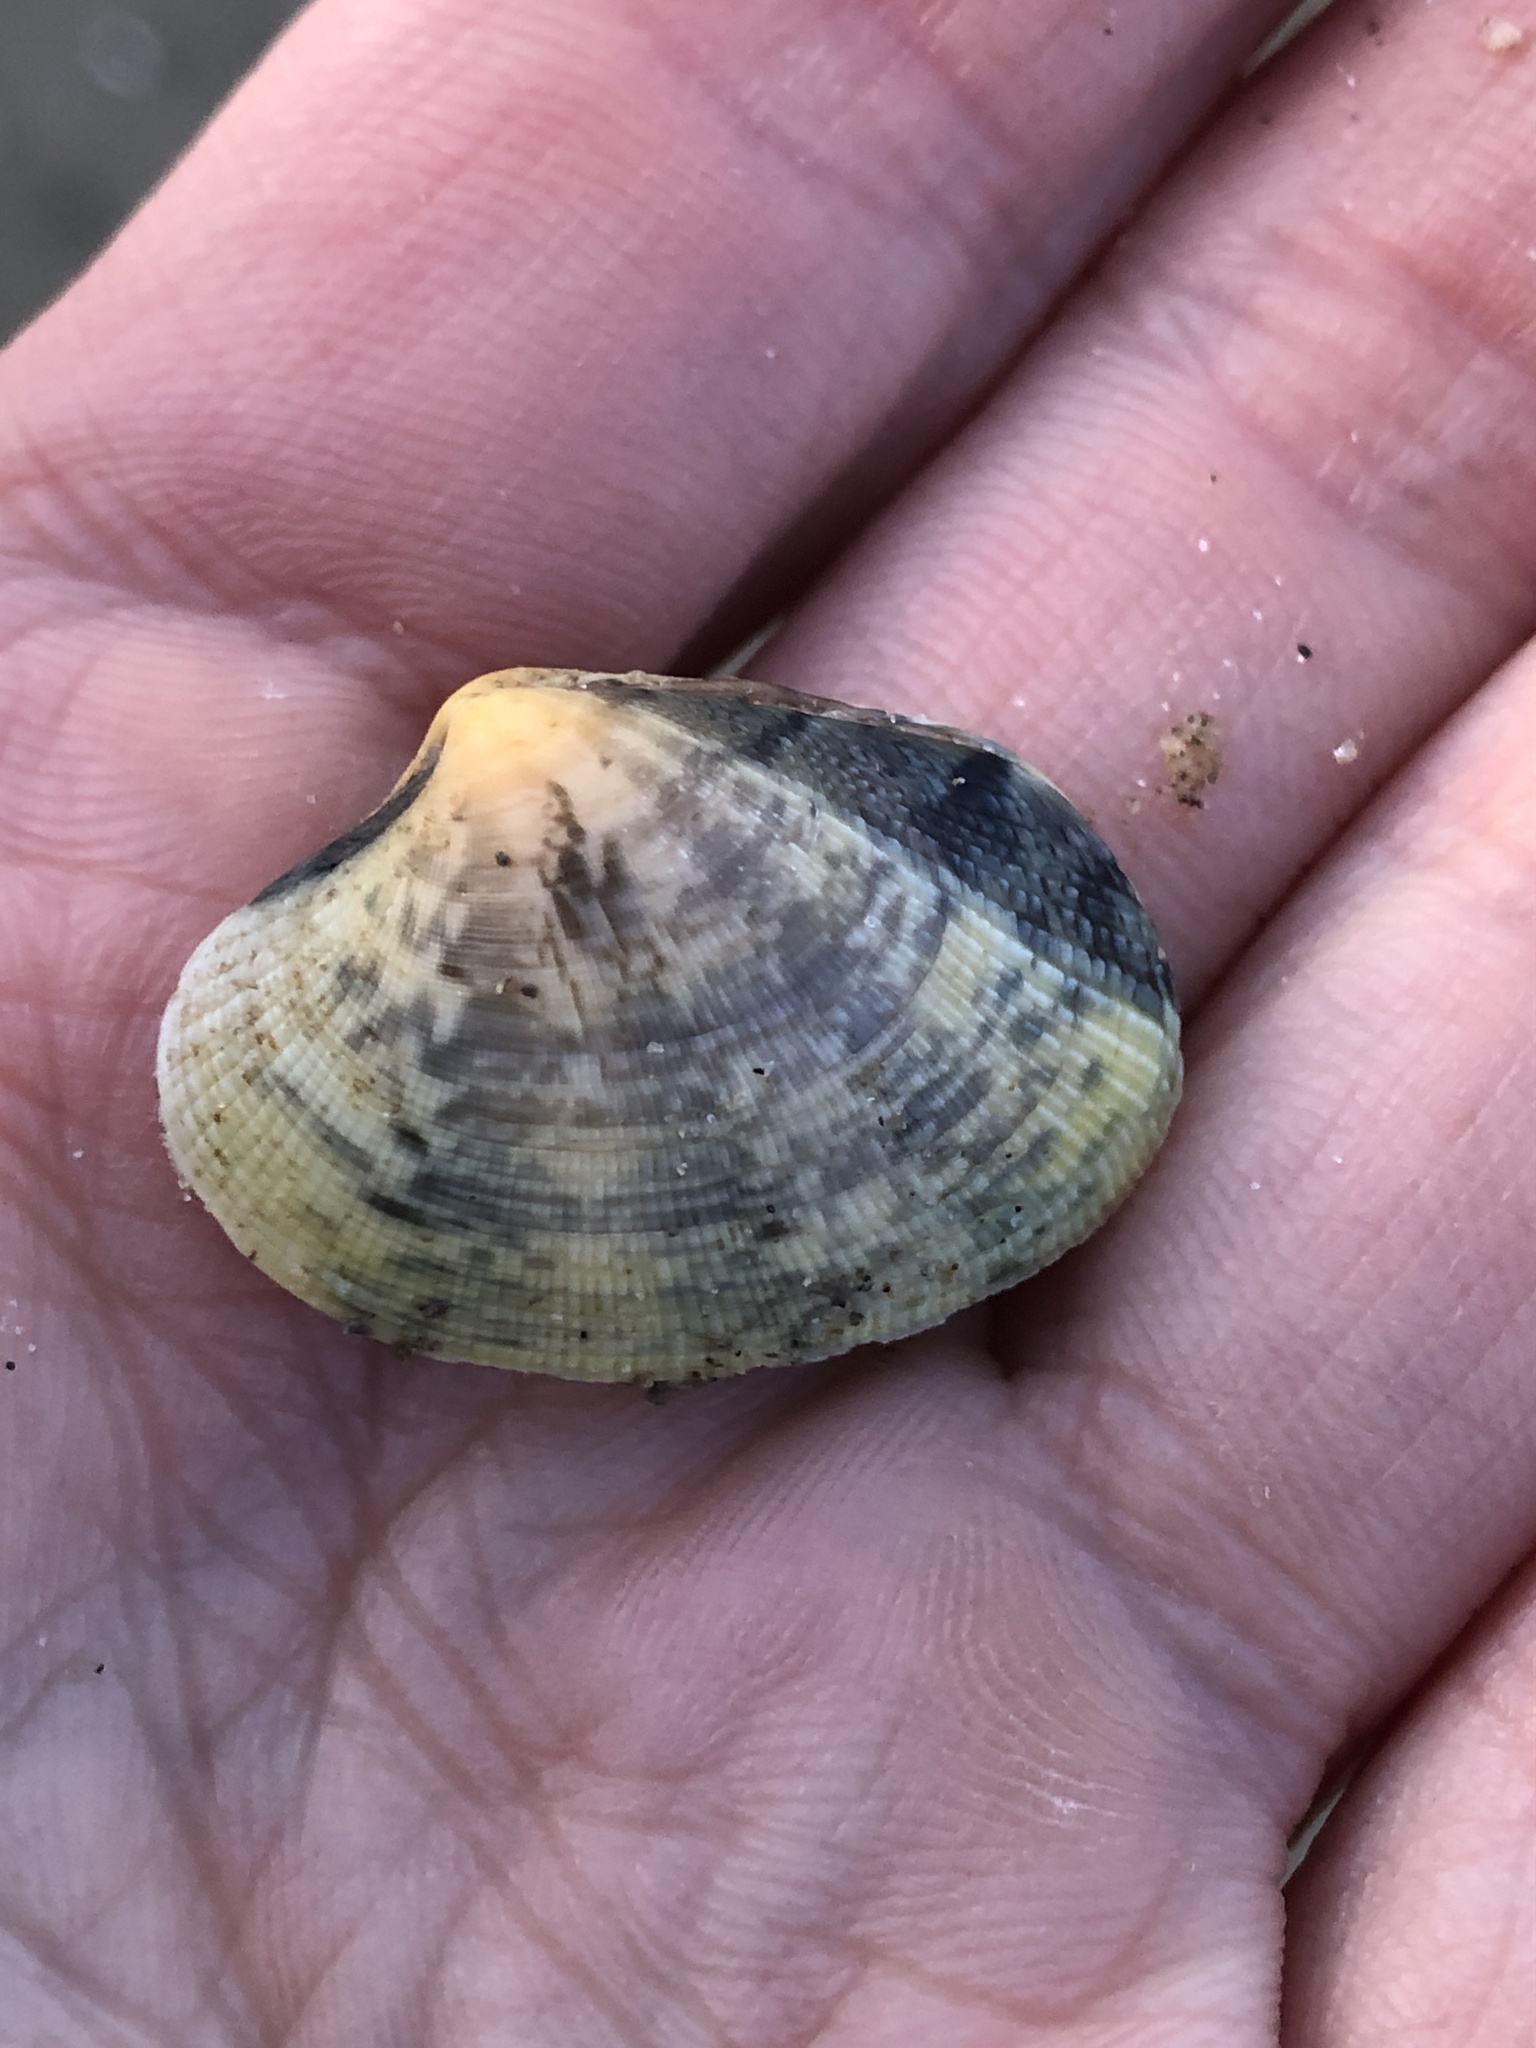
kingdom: Animalia
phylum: Mollusca
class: Bivalvia
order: Venerida
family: Veneridae
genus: Ruditapes
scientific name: Ruditapes philippinarum
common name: Manila clam
